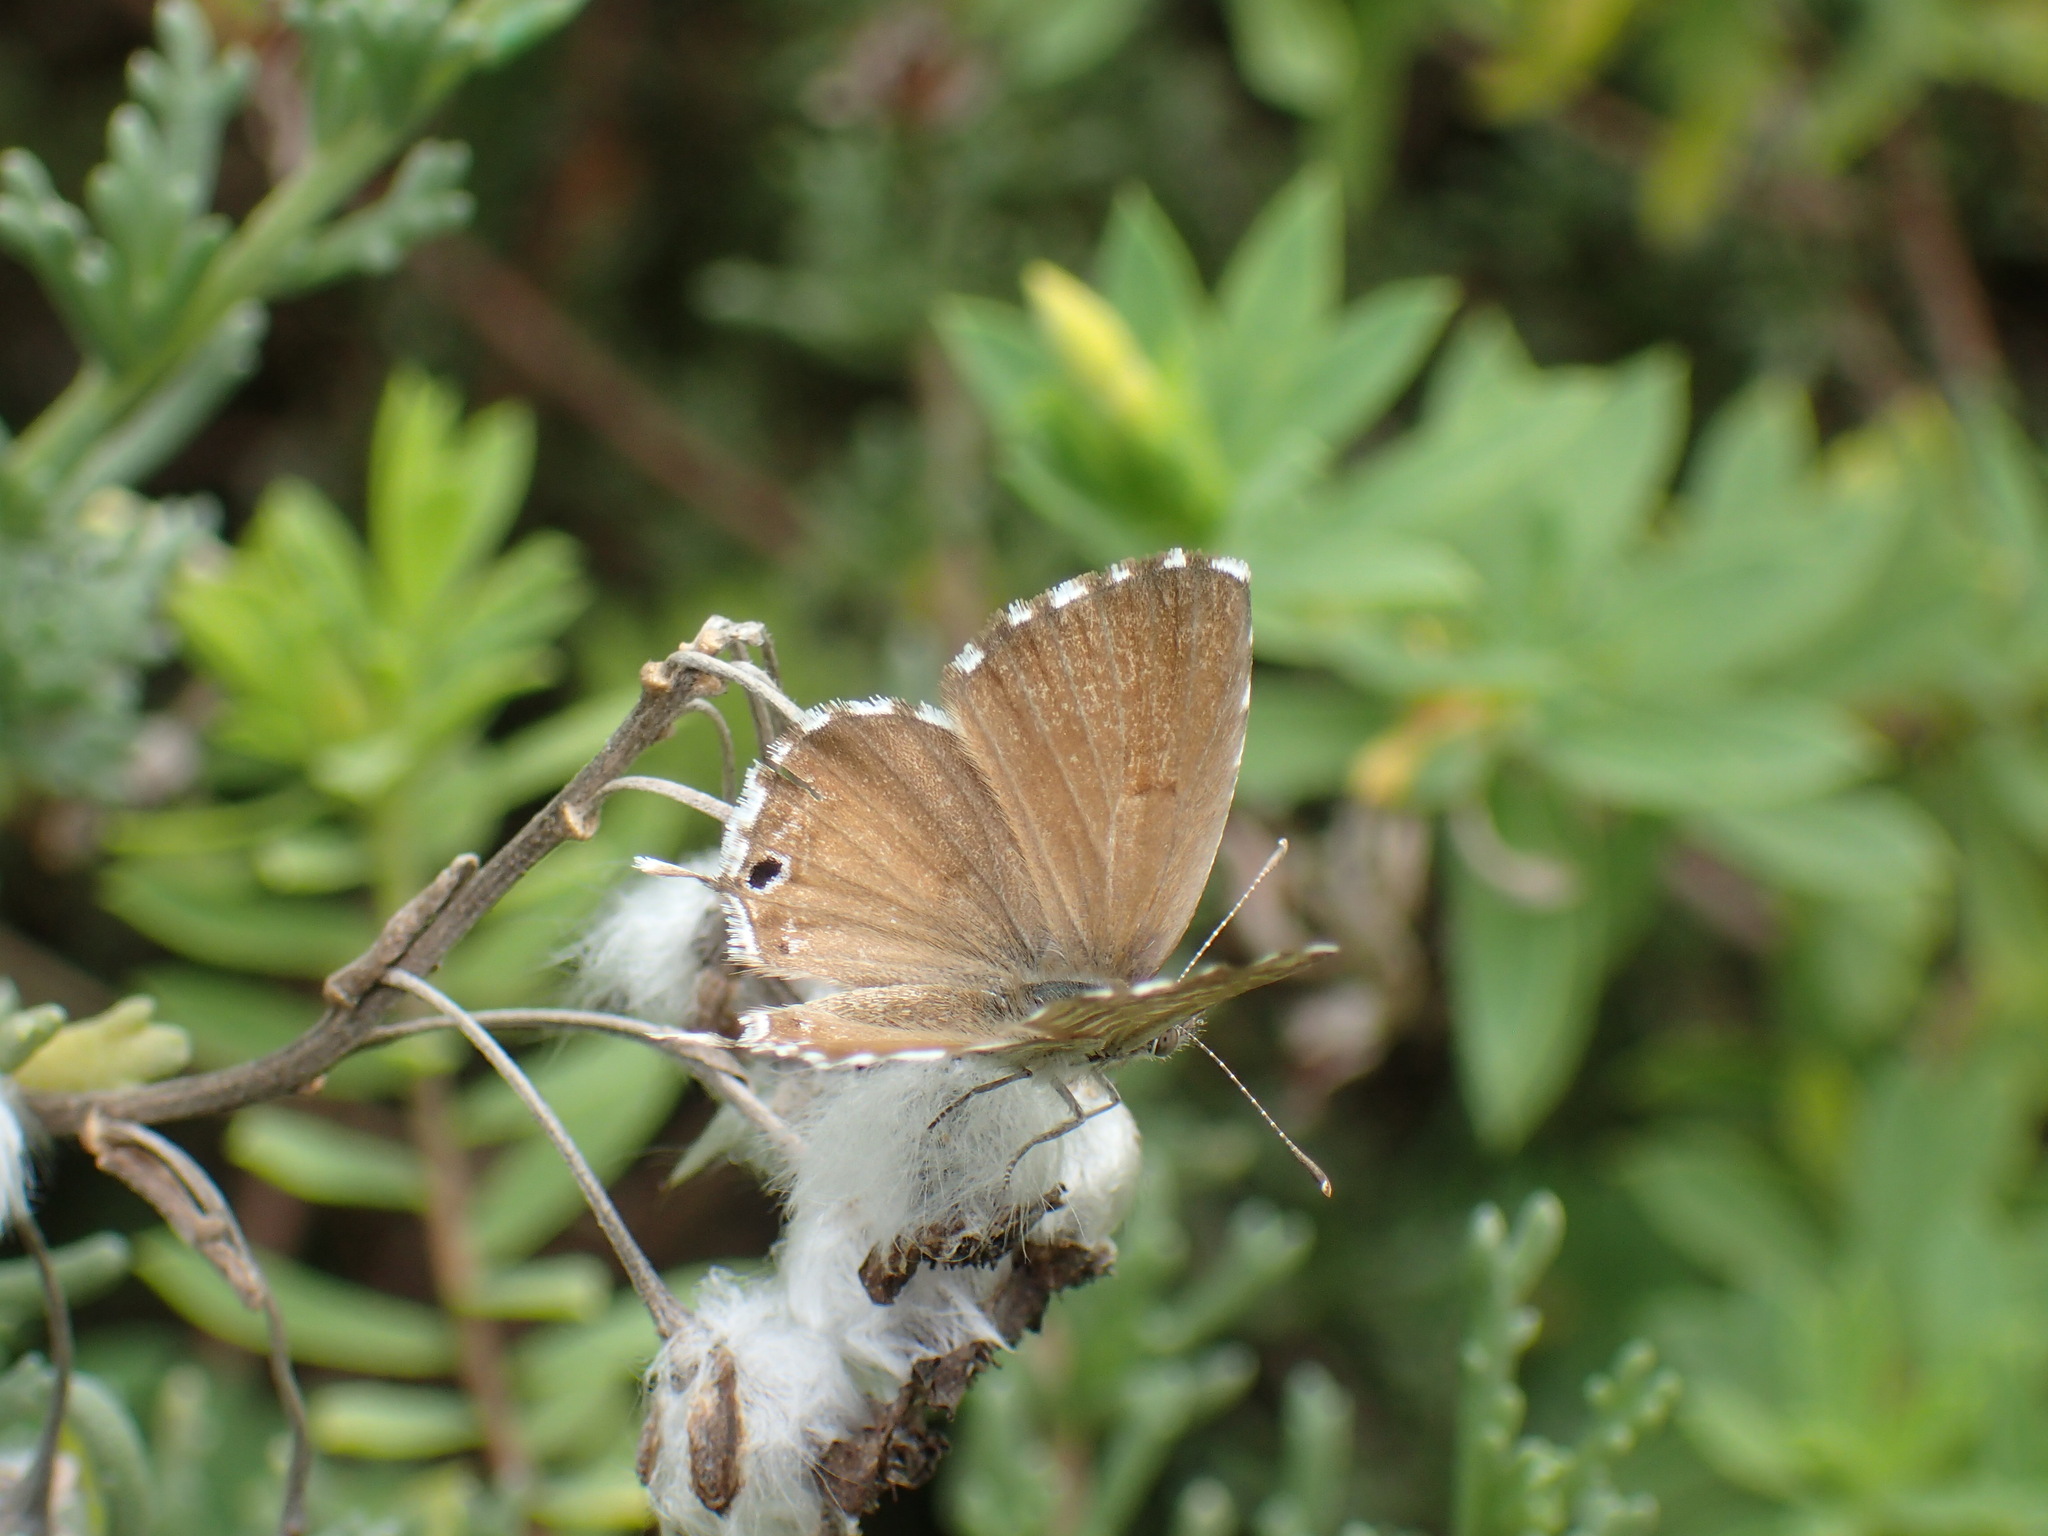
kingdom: Animalia
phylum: Arthropoda
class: Insecta
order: Lepidoptera
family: Lycaenidae
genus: Cacyreus
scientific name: Cacyreus marshalli
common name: Geranium bronze
